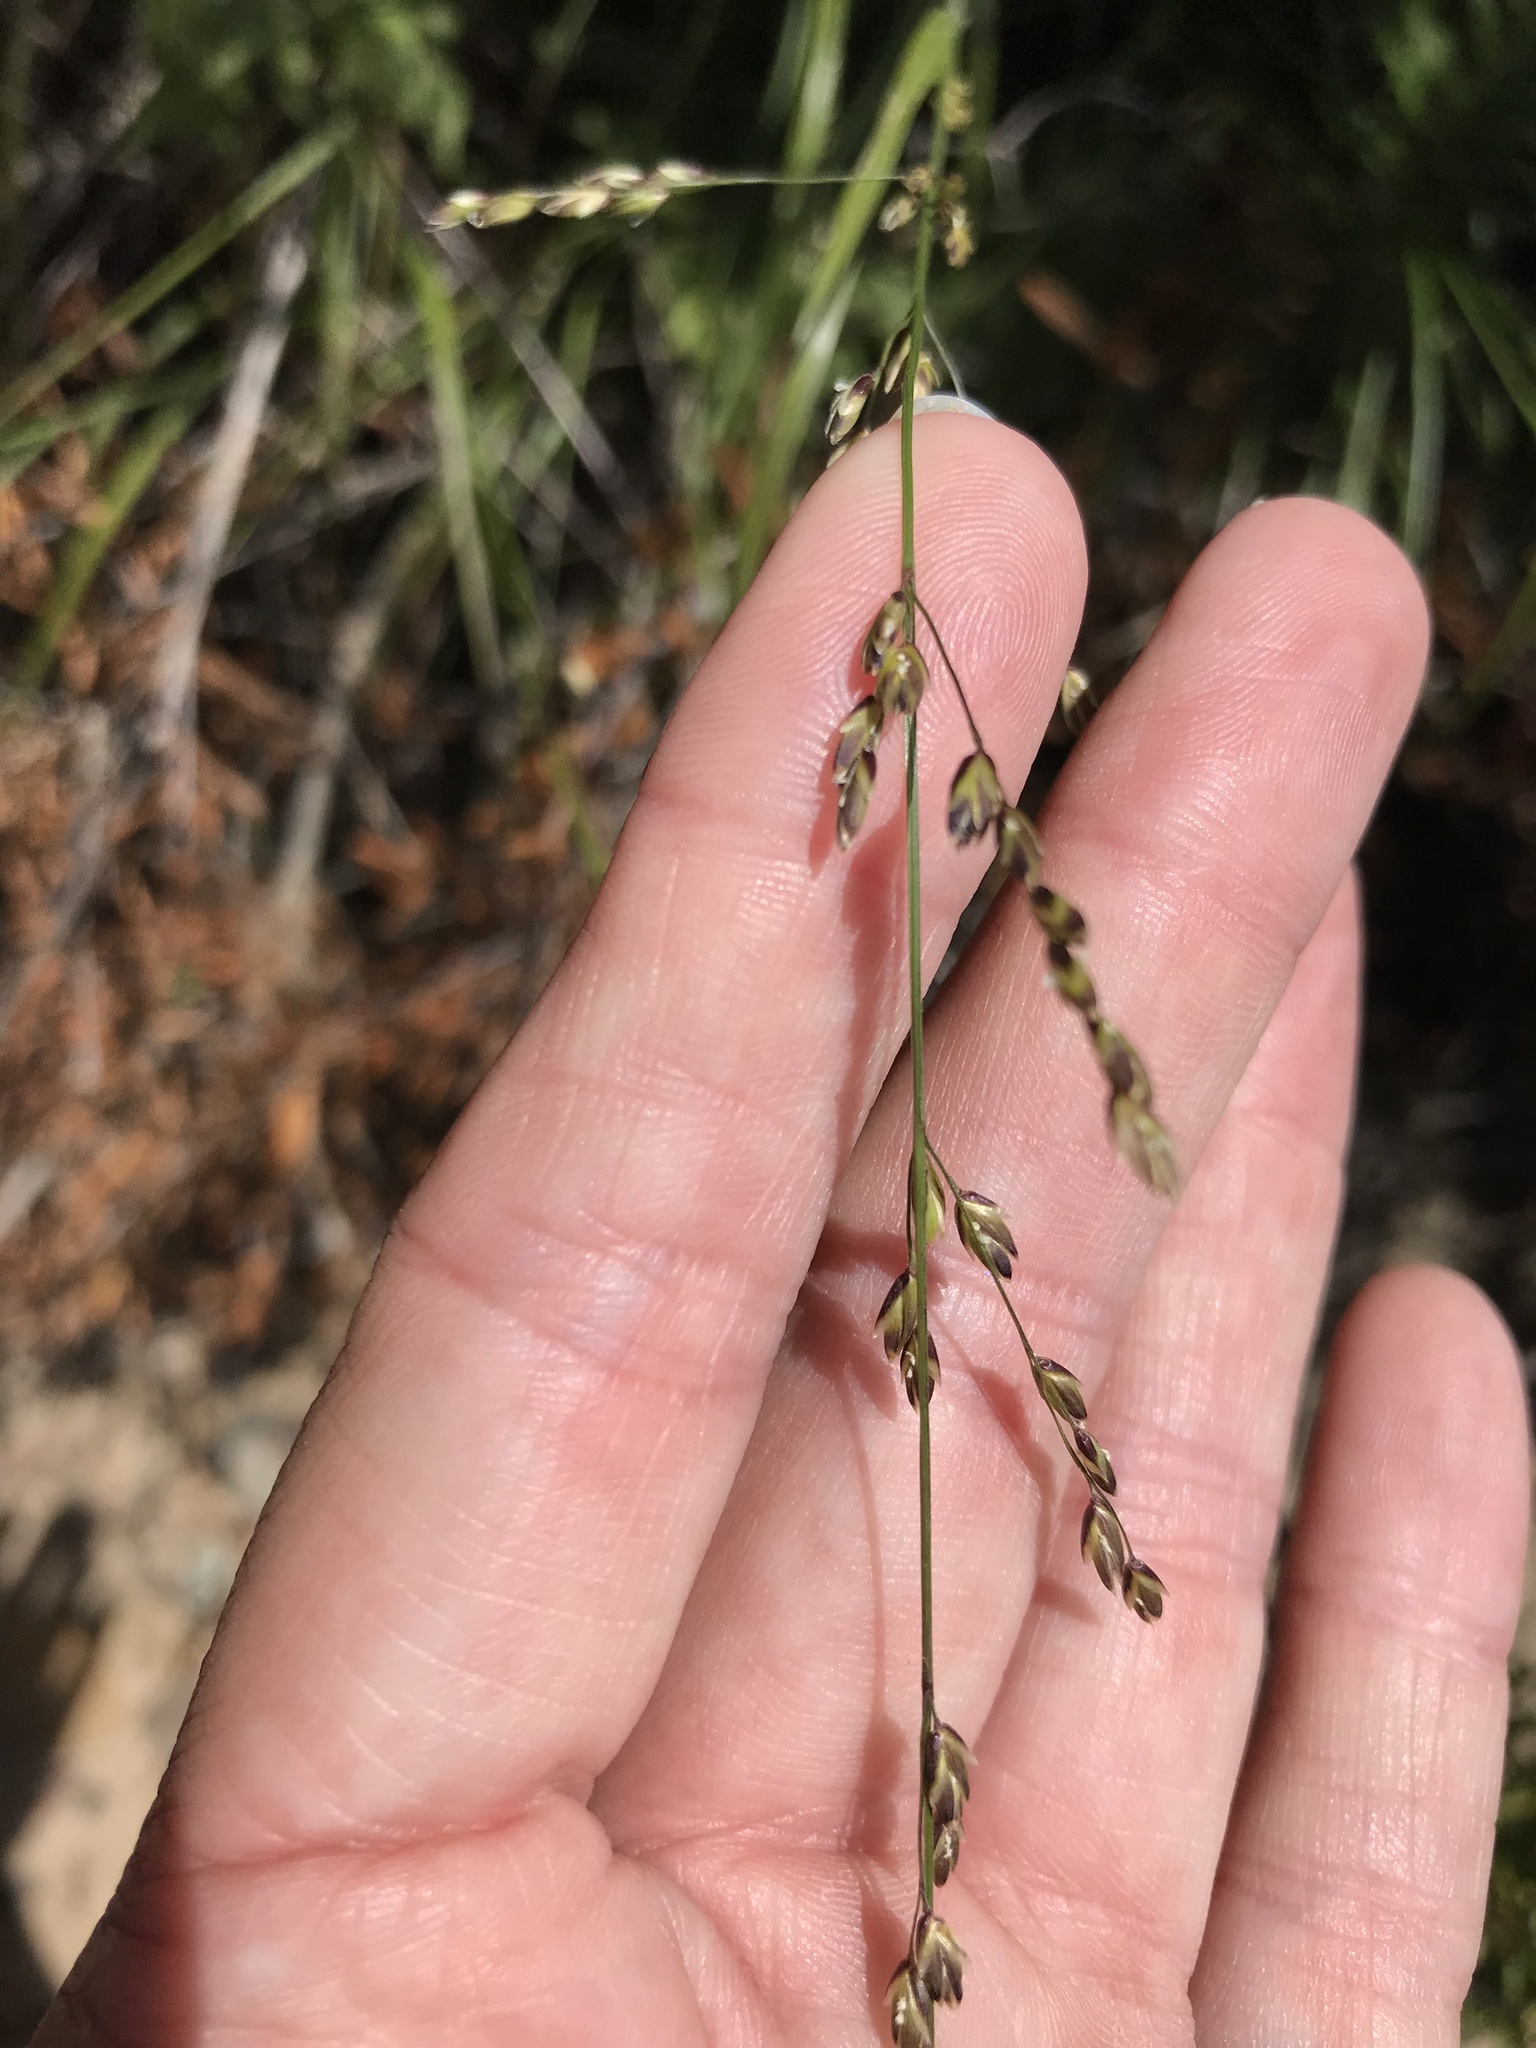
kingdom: Plantae
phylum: Tracheophyta
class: Liliopsida
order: Poales
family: Poaceae
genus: Melica
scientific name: Melica imperfecta
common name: California melic
